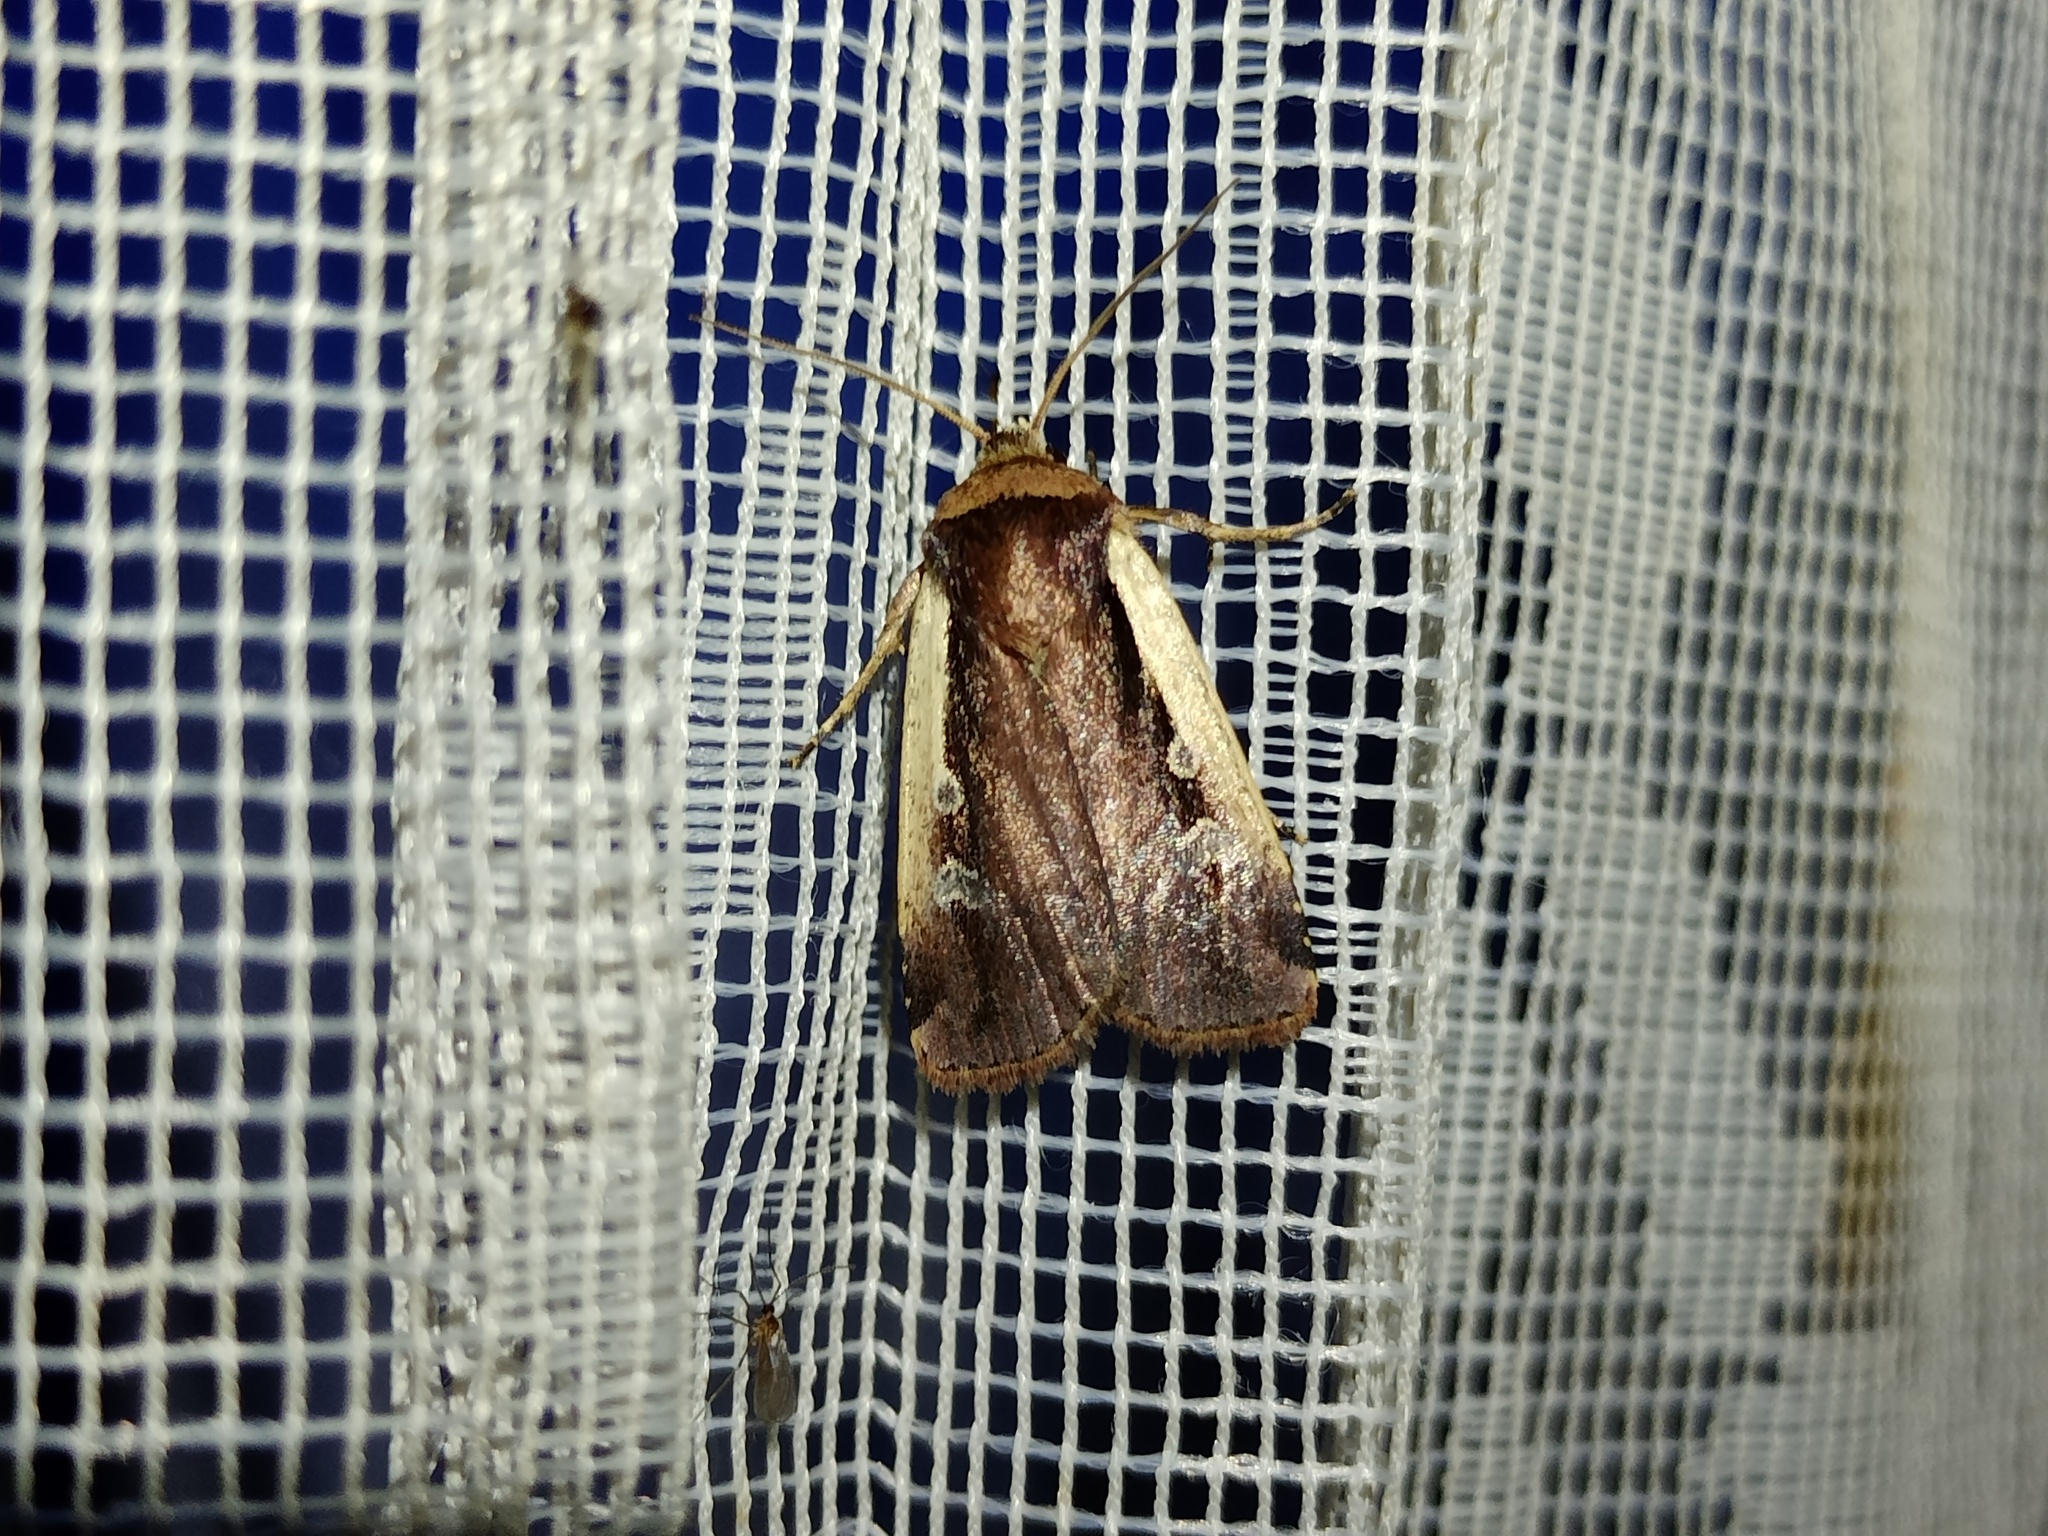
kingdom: Animalia
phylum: Arthropoda
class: Insecta
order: Lepidoptera
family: Noctuidae
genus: Ochropleura
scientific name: Ochropleura plecta
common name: Flame shoulder
